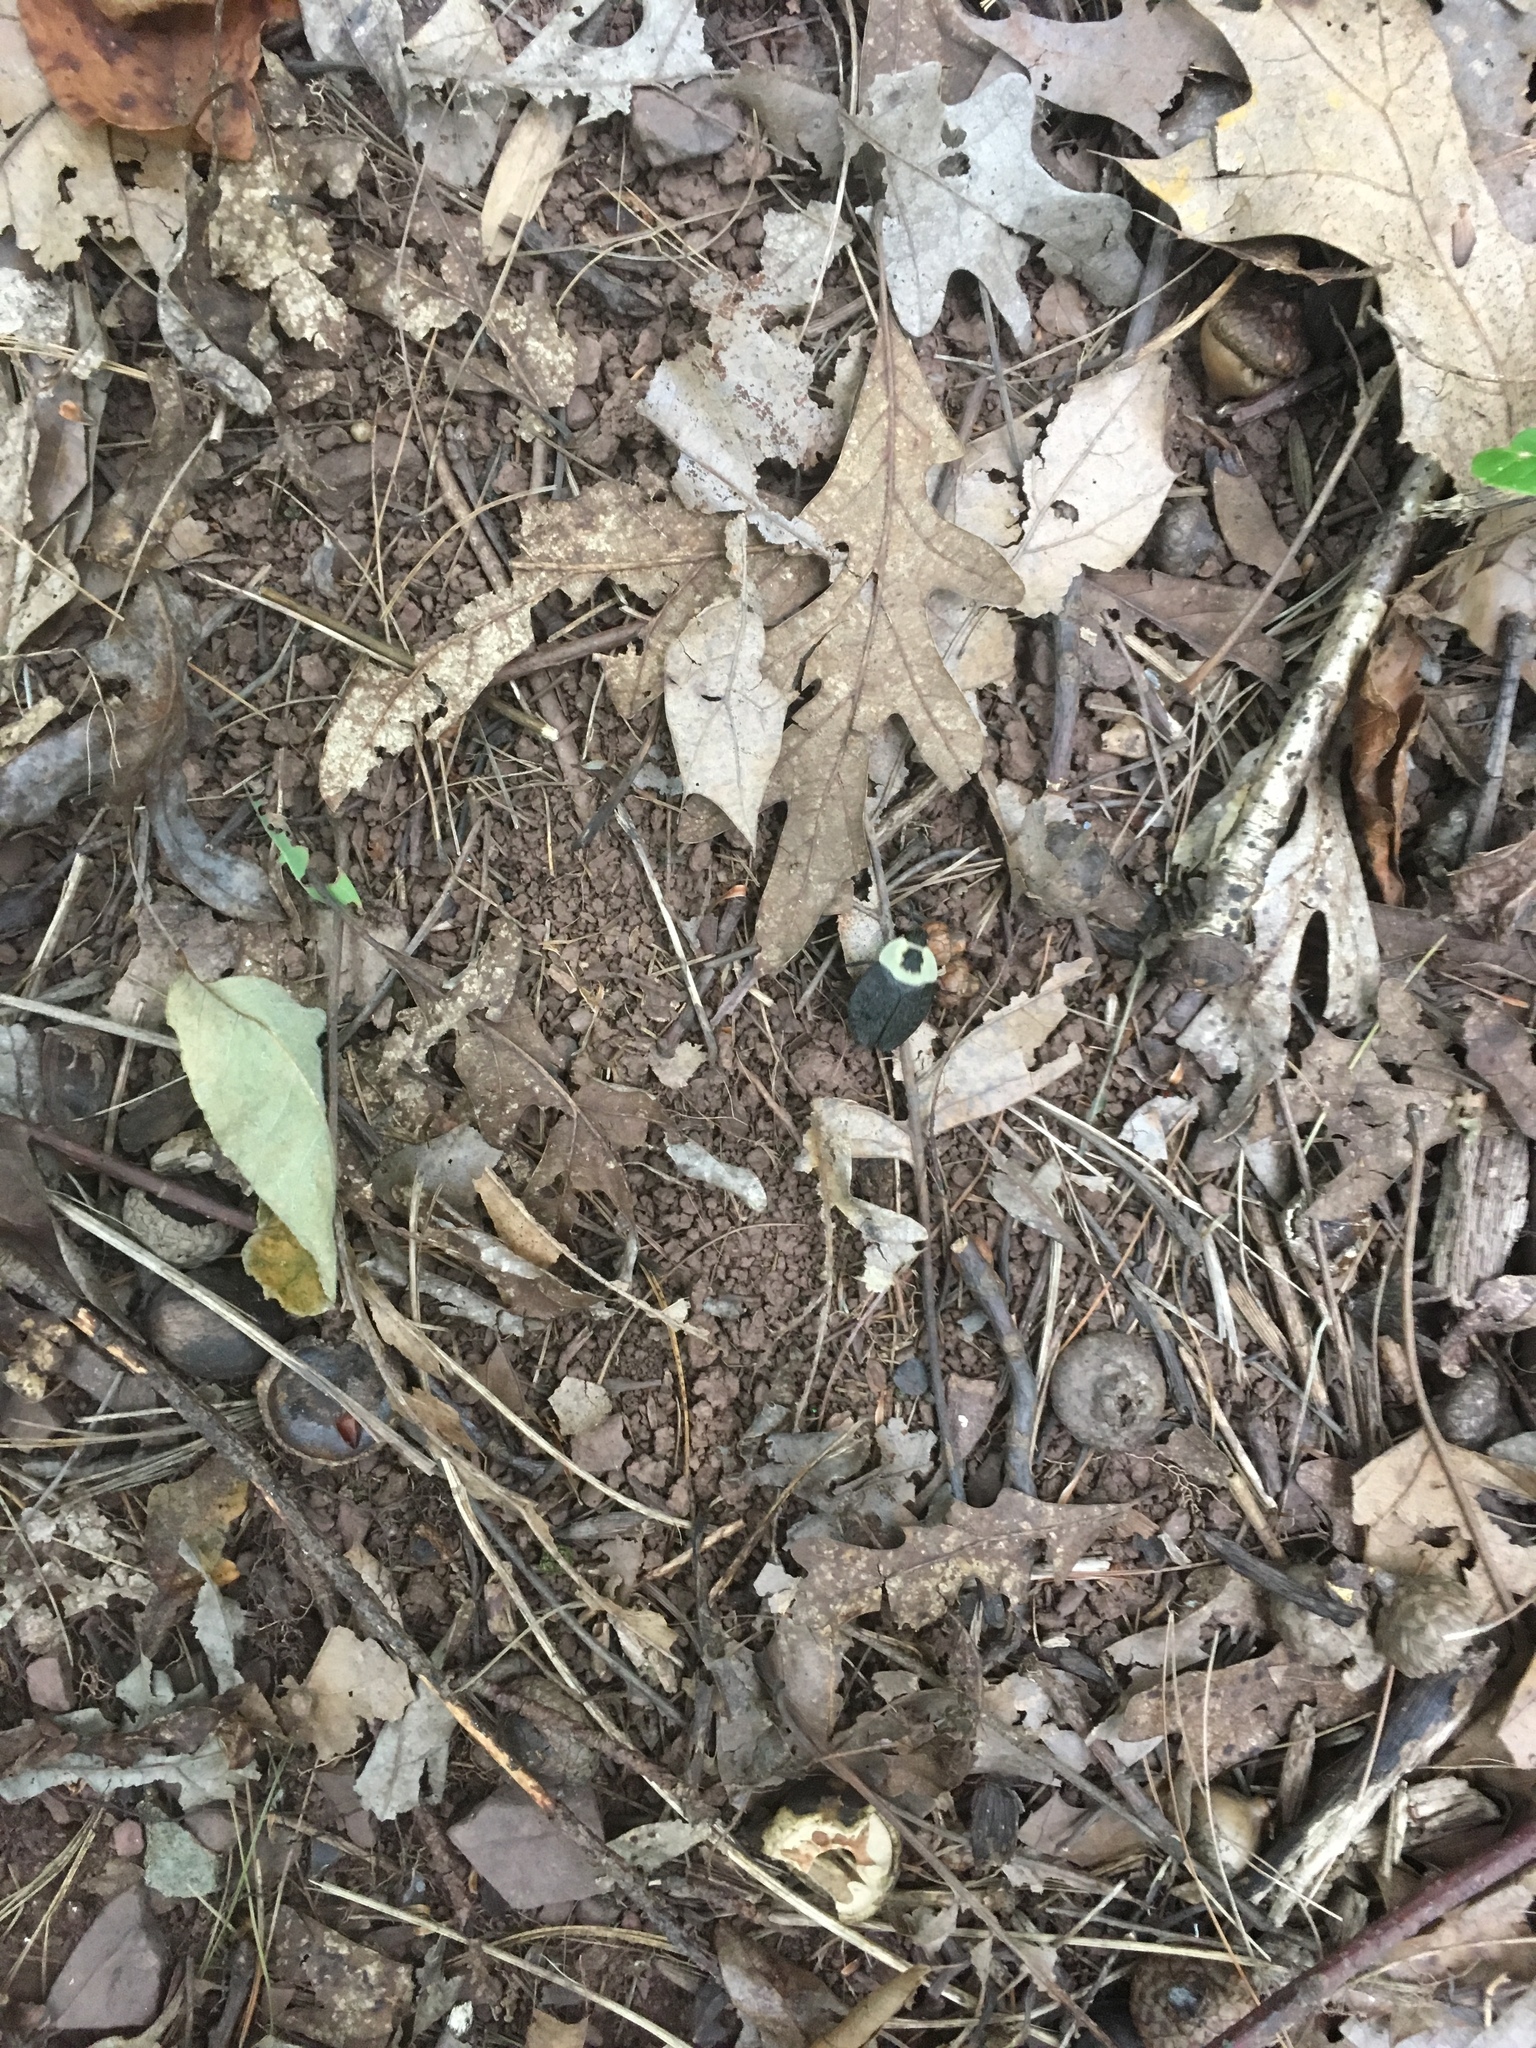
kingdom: Animalia
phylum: Arthropoda
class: Insecta
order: Coleoptera
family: Staphylinidae
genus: Necrophila
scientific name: Necrophila americana
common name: American carrion beetle
